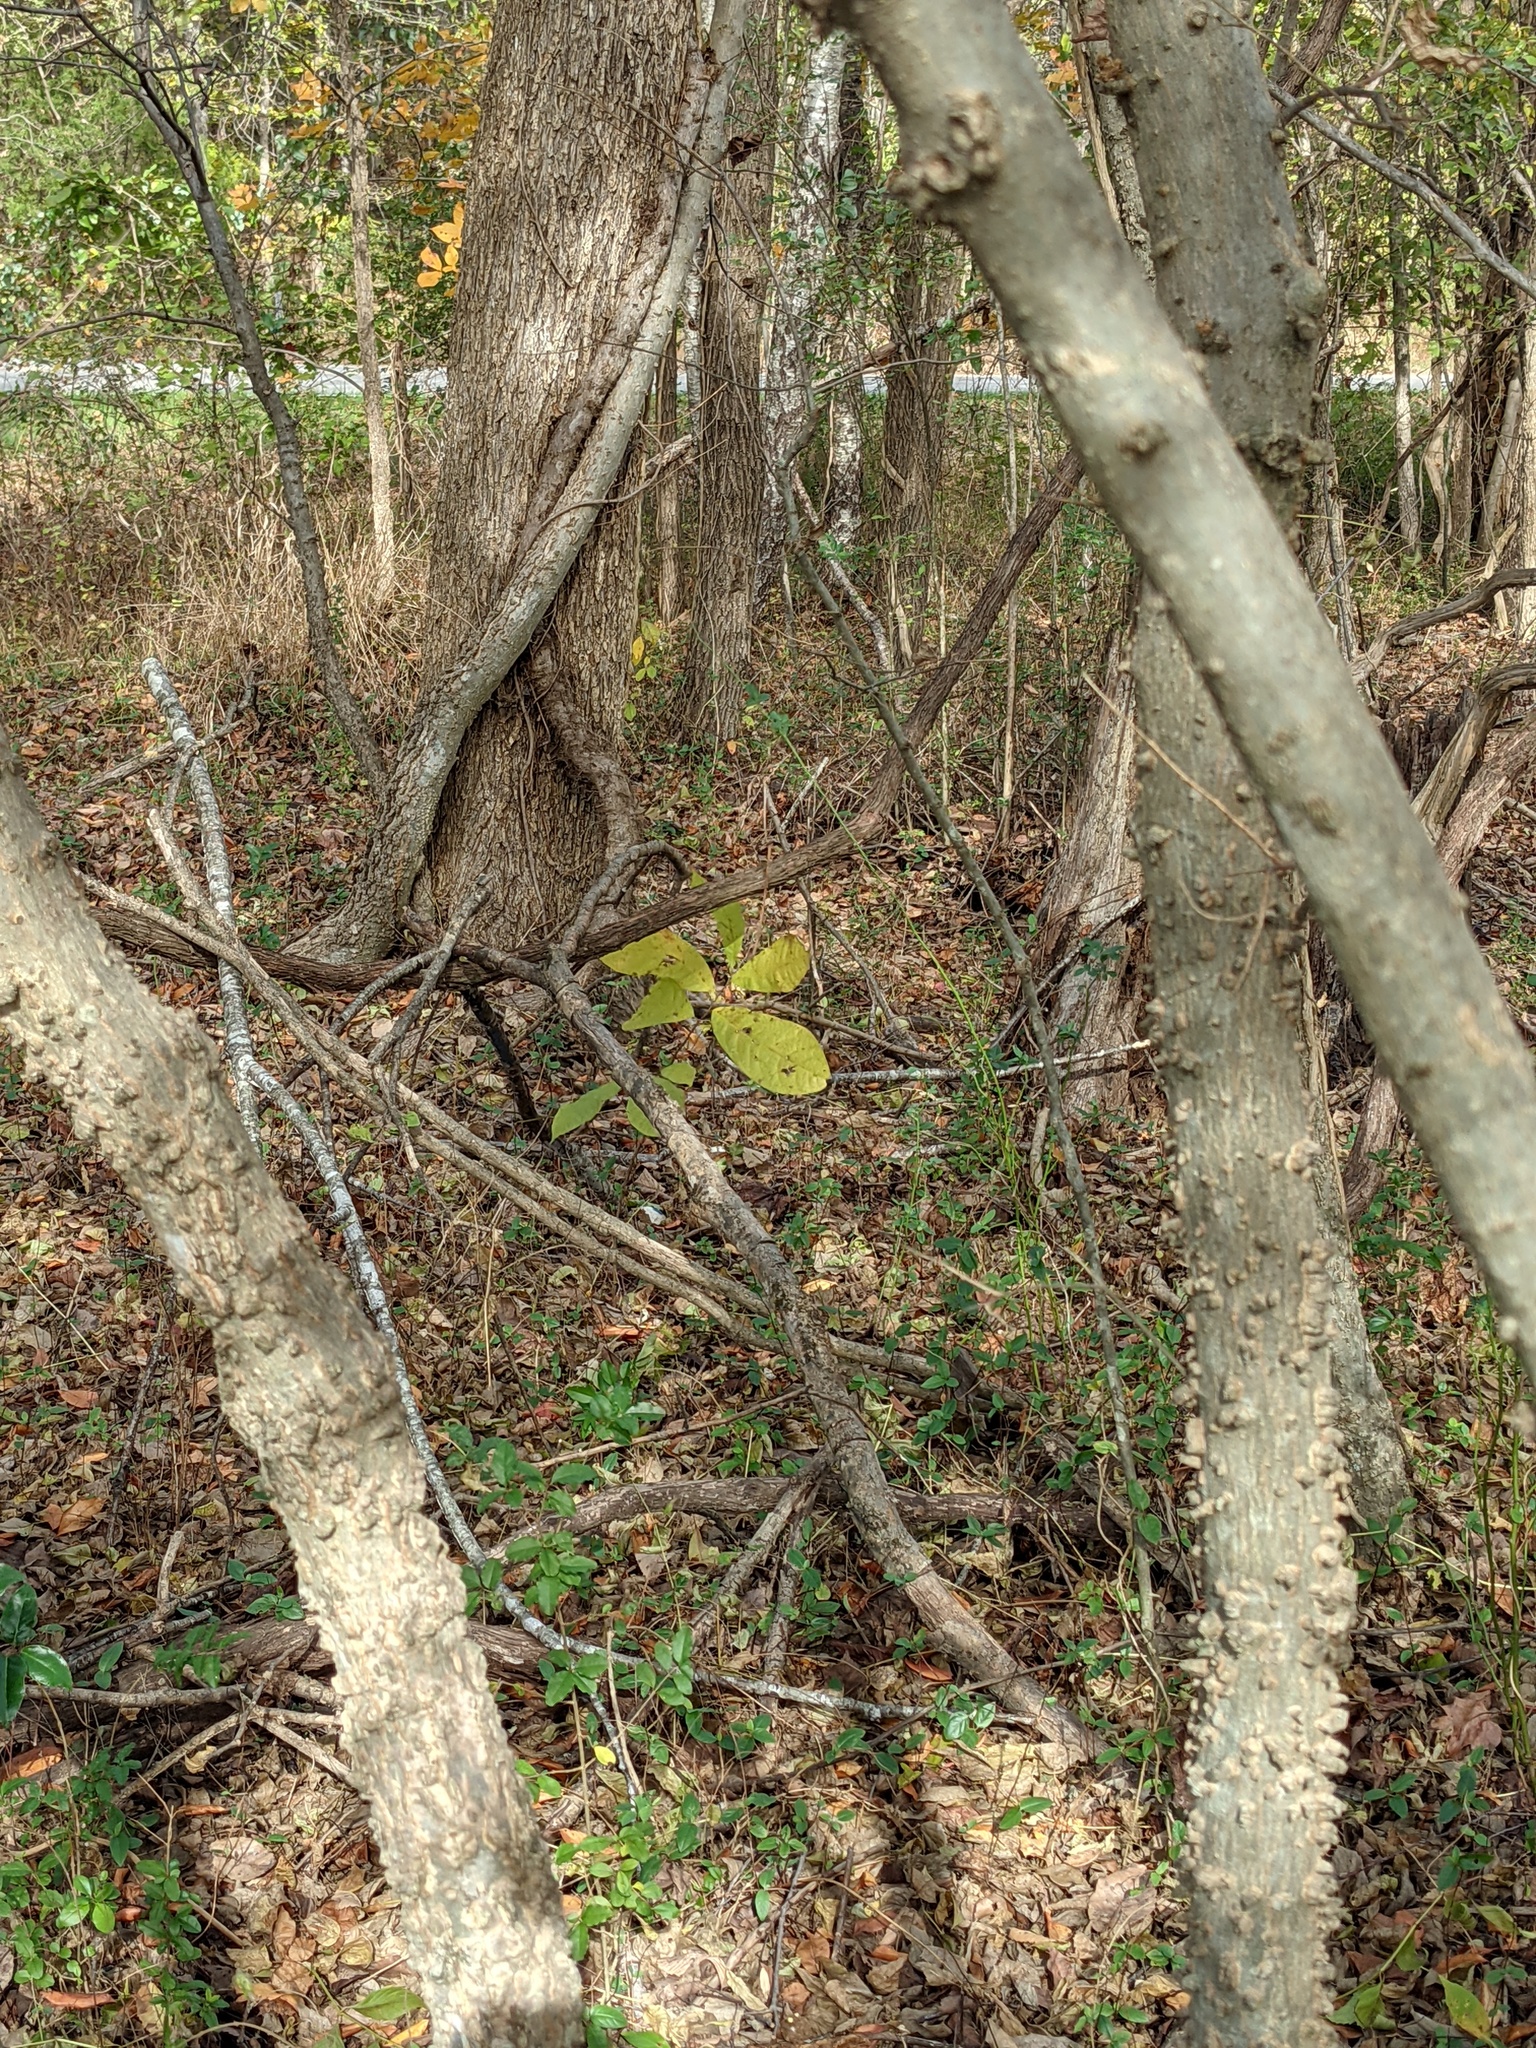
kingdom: Plantae
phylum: Tracheophyta
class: Magnoliopsida
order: Magnoliales
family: Annonaceae
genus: Asimina
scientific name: Asimina triloba
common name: Dog-banana
